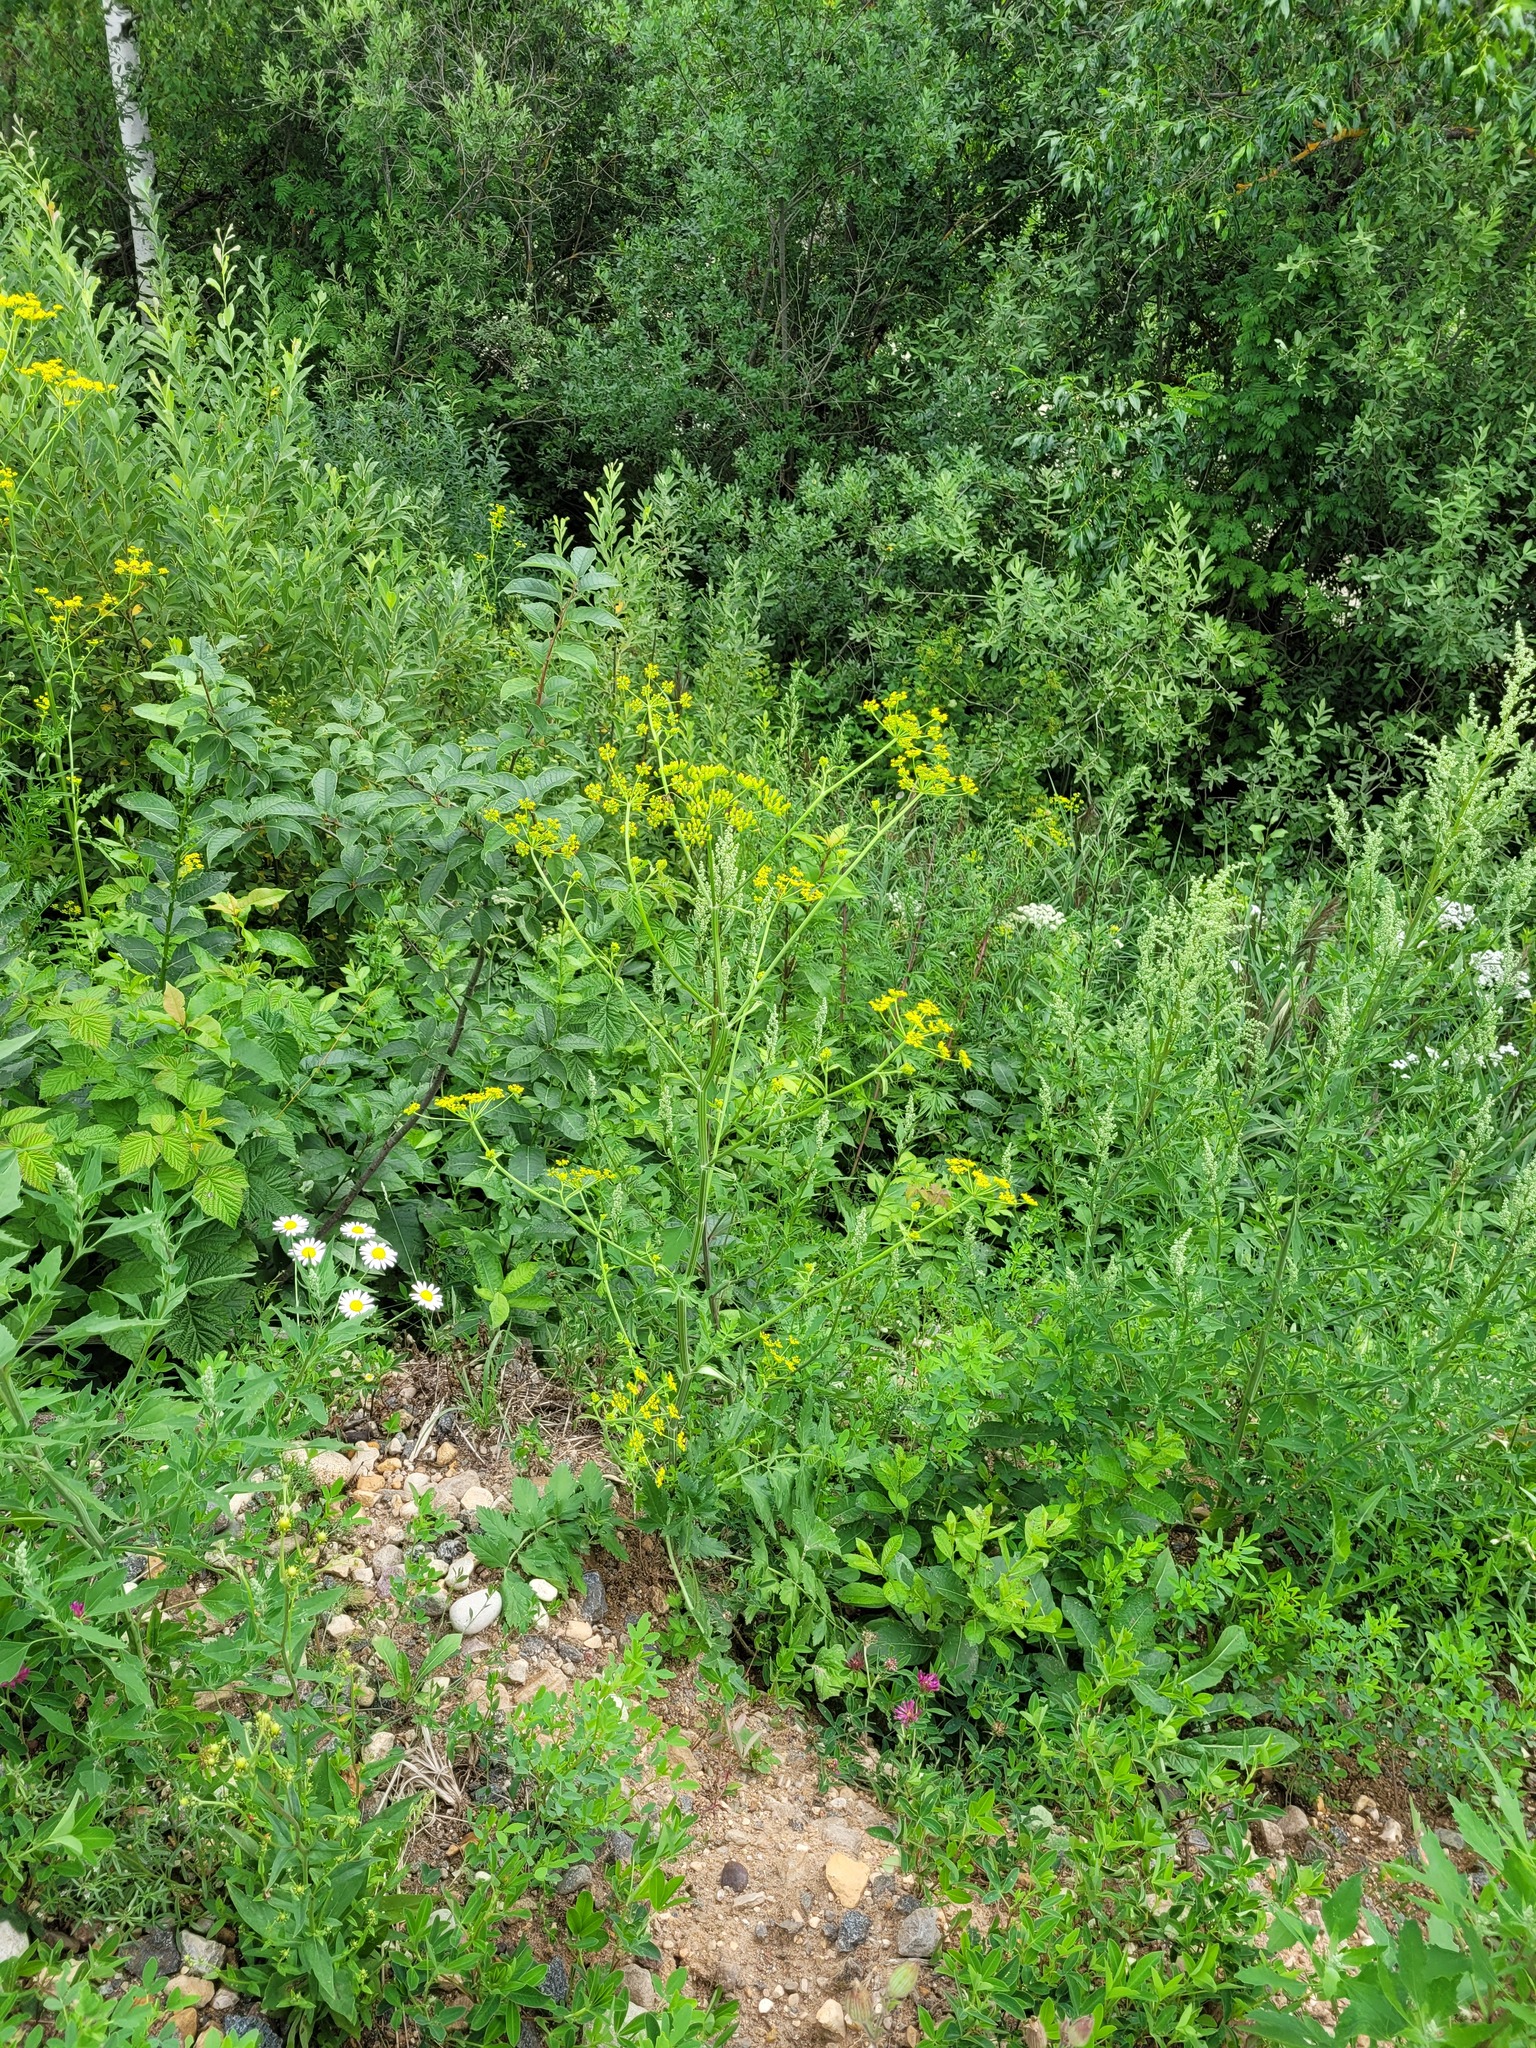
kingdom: Plantae
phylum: Tracheophyta
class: Magnoliopsida
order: Apiales
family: Apiaceae
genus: Pastinaca
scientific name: Pastinaca sativa
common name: Wild parsnip
